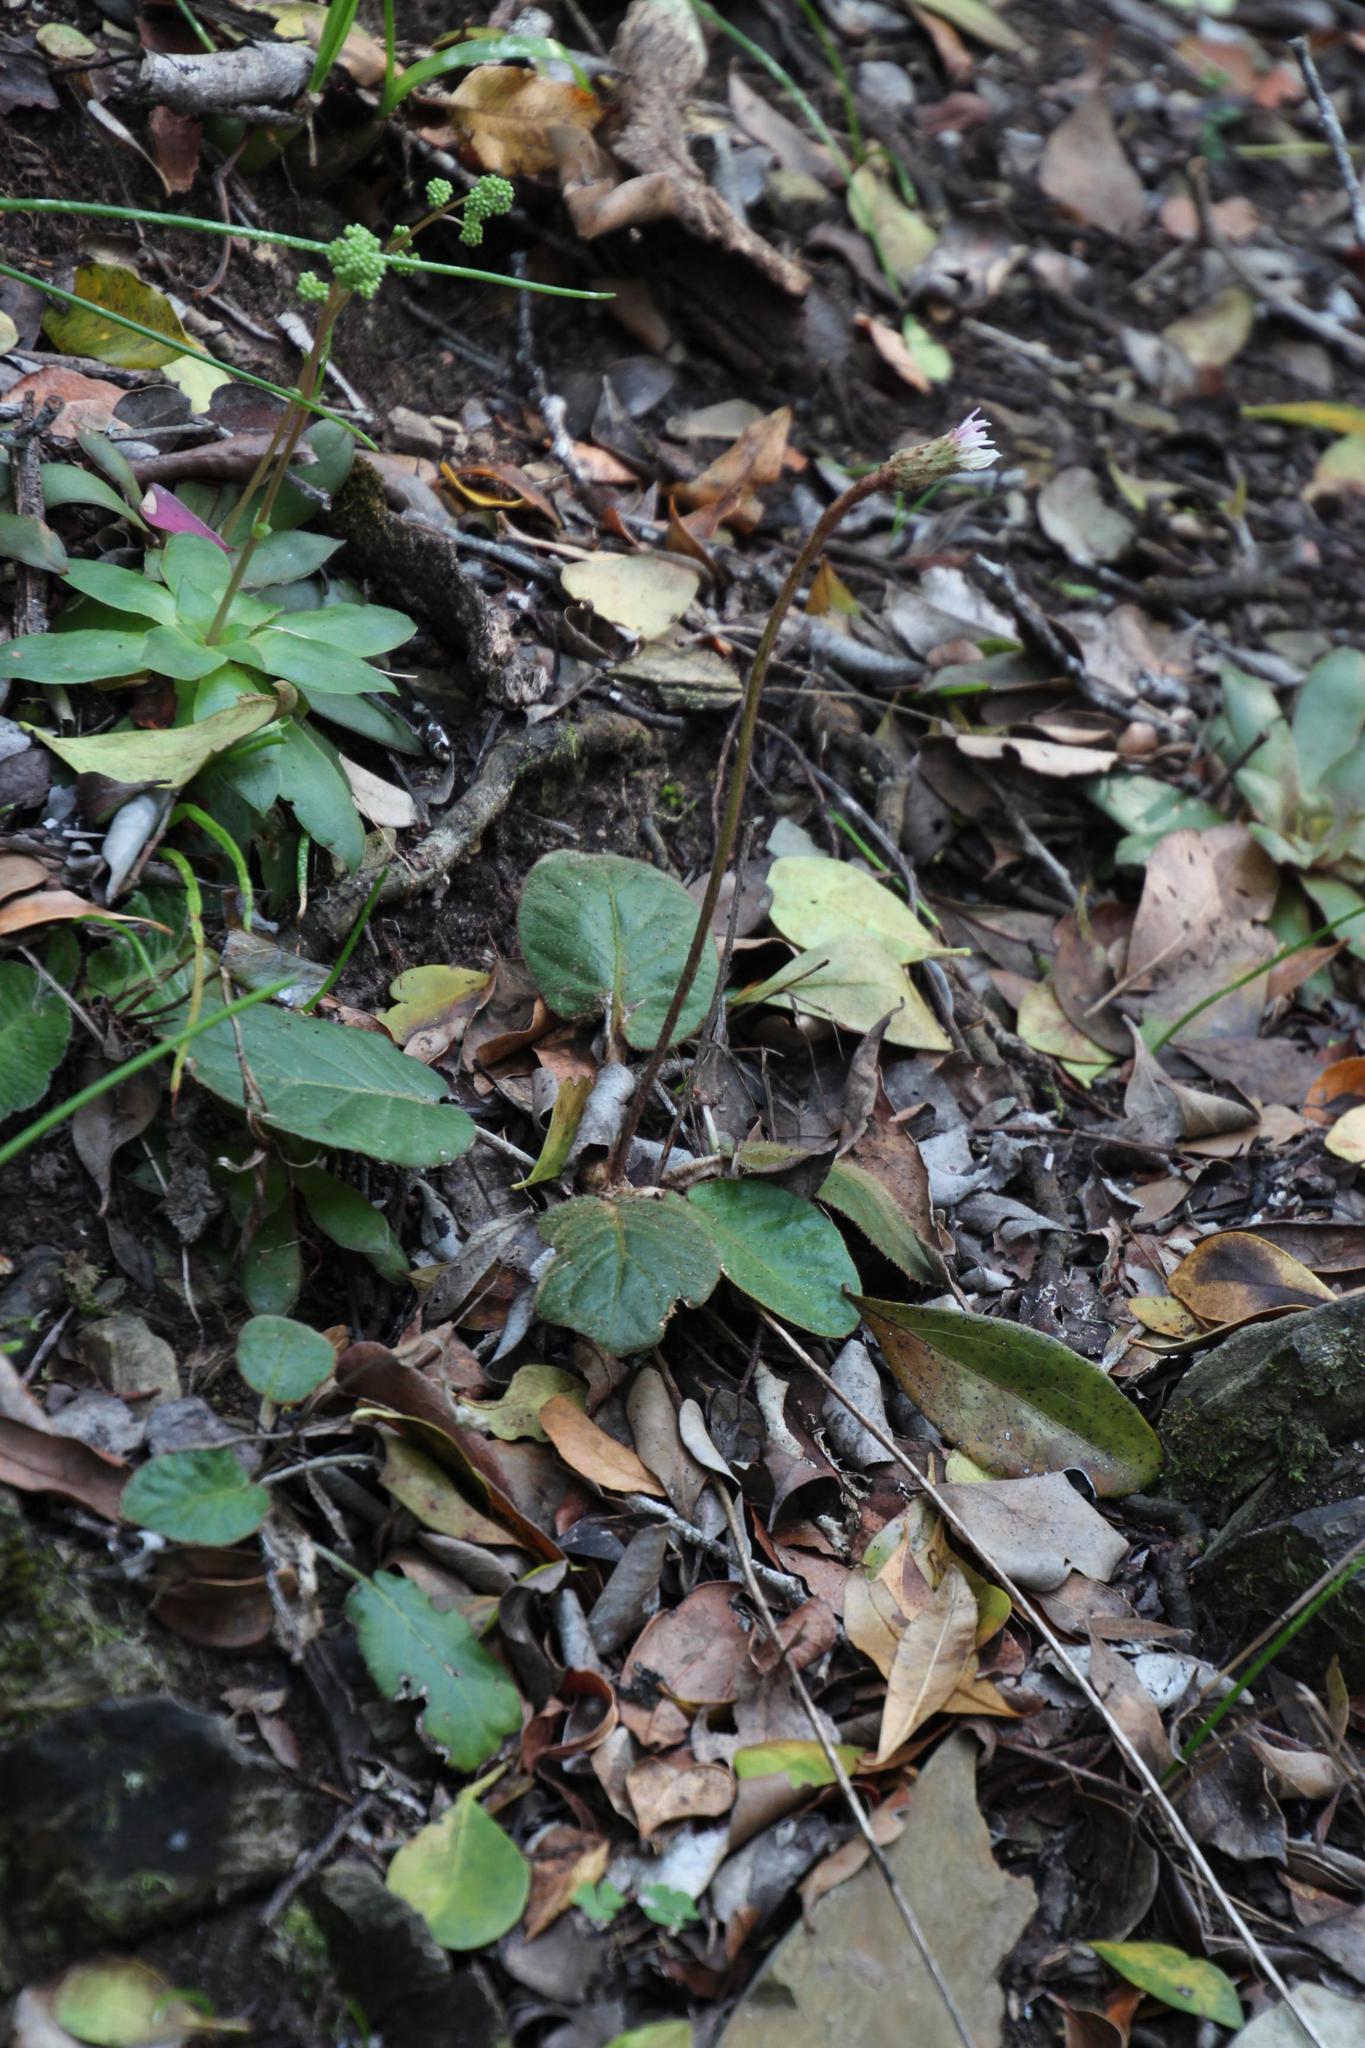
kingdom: Plantae
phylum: Tracheophyta
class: Magnoliopsida
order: Asterales
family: Asteraceae
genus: Piloselloides
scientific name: Piloselloides cordata
